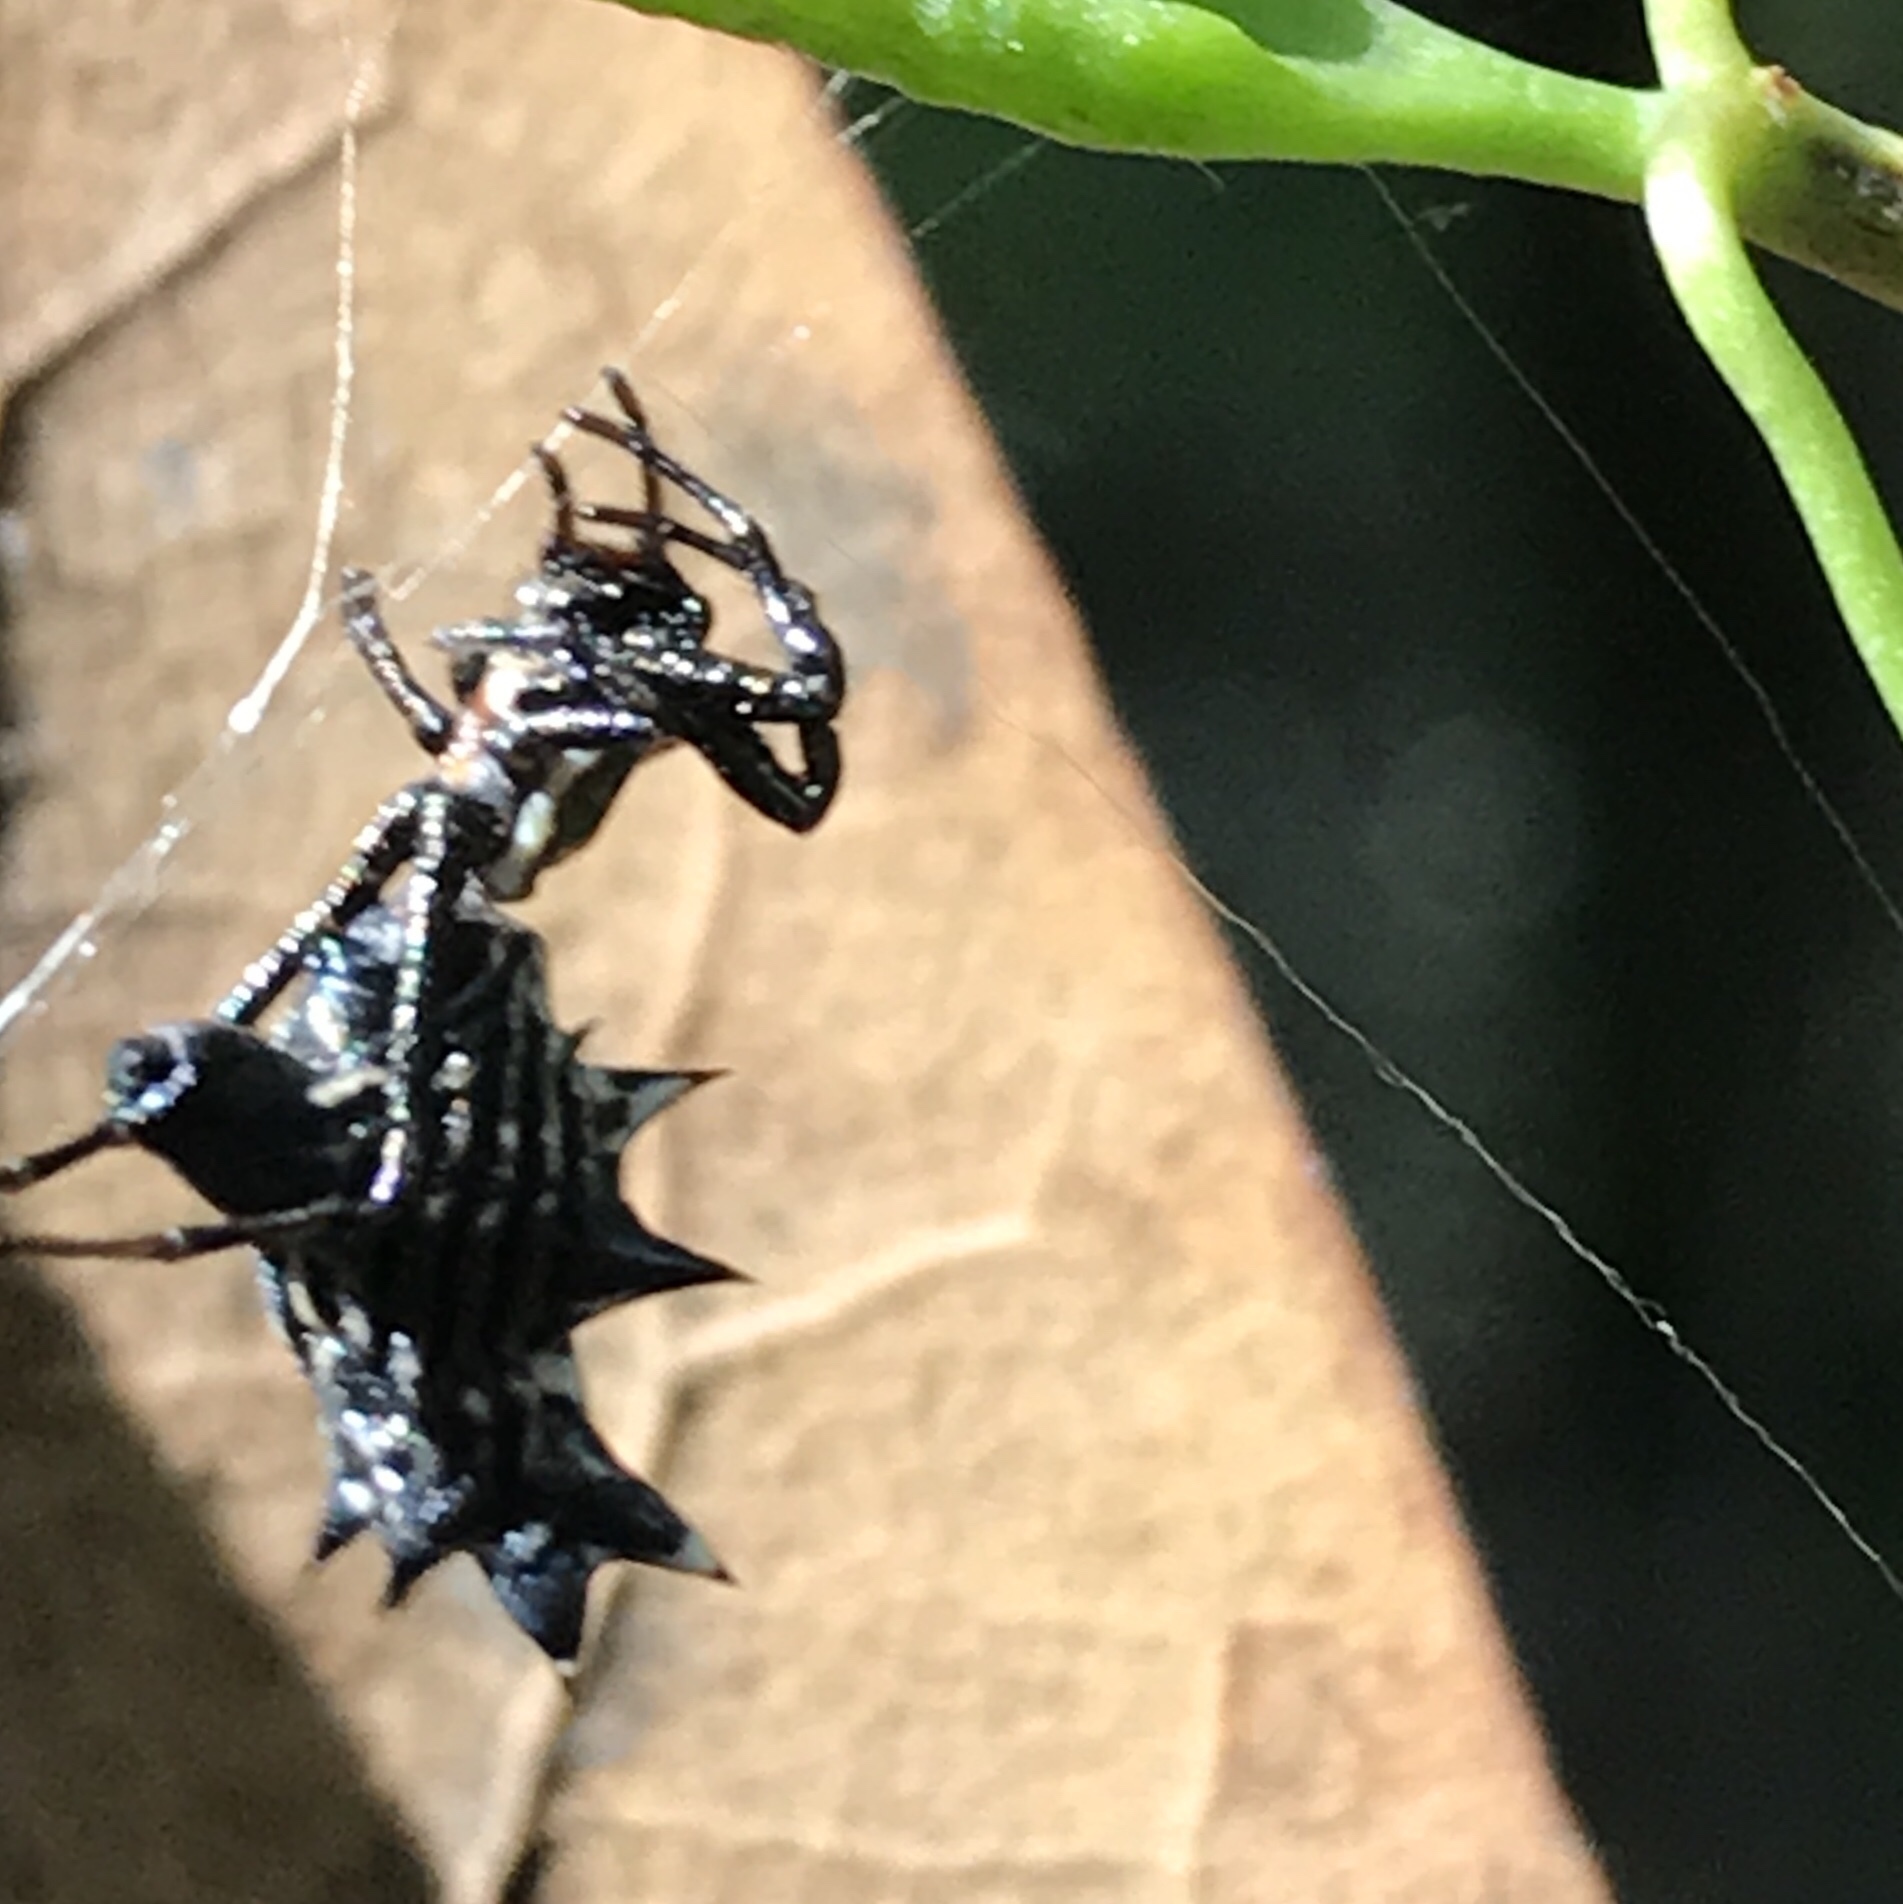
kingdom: Animalia
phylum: Arthropoda
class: Arachnida
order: Araneae
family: Araneidae
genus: Micrathena
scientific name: Micrathena gracilis
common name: Orb weavers
